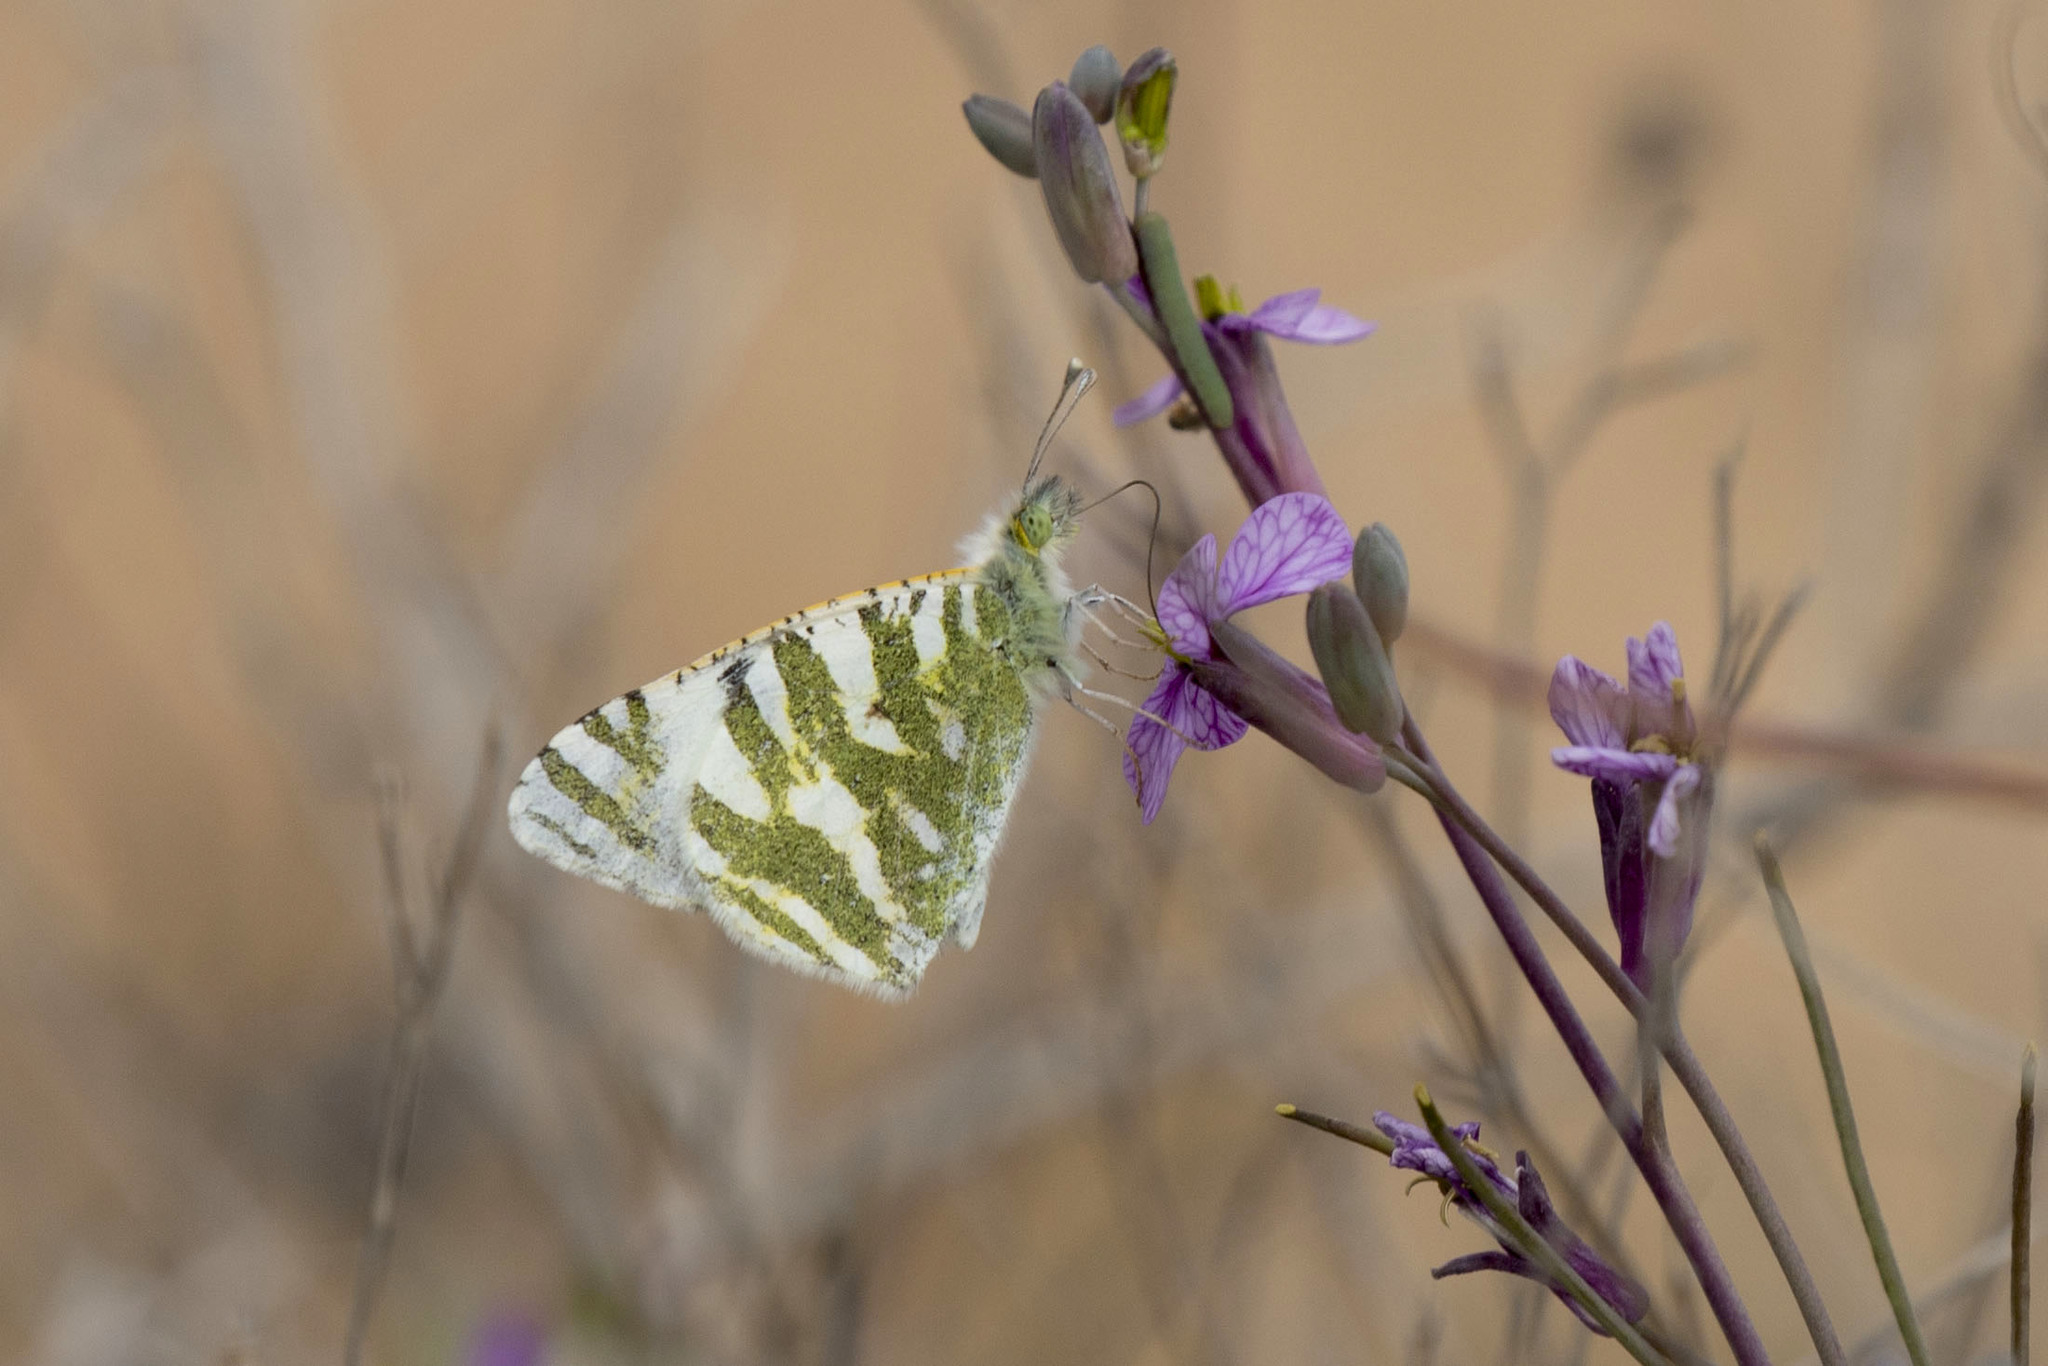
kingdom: Animalia
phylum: Arthropoda
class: Insecta
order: Lepidoptera
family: Pieridae
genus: Euchloe
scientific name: Euchloe belemia
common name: Green-striped white
